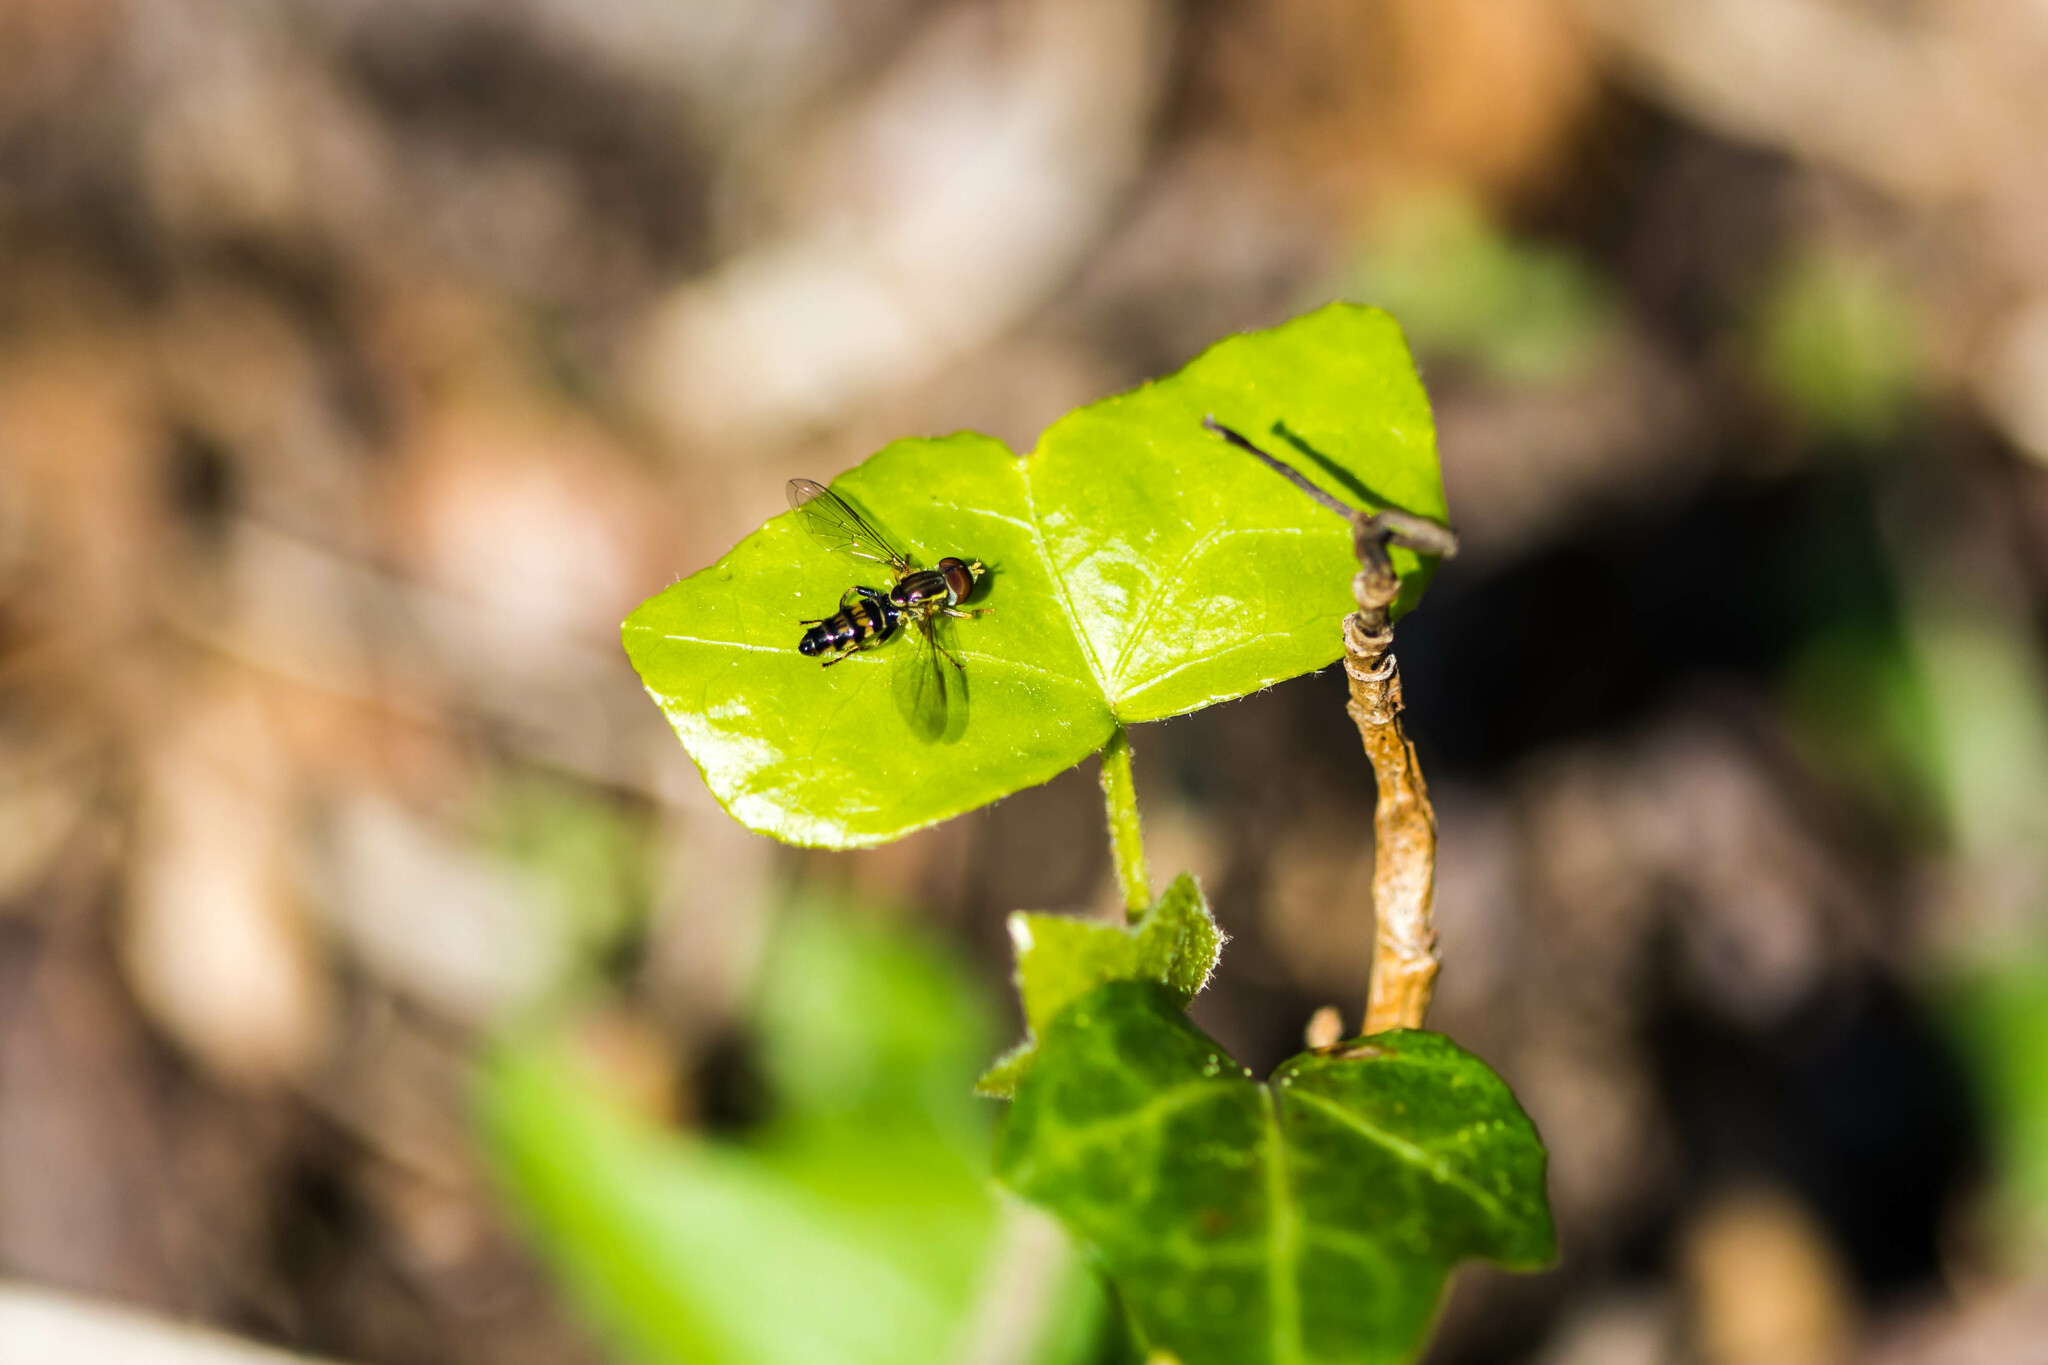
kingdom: Animalia
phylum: Arthropoda
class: Insecta
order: Diptera
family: Syrphidae
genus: Toxomerus
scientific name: Toxomerus geminatus
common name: Eastern calligrapher
